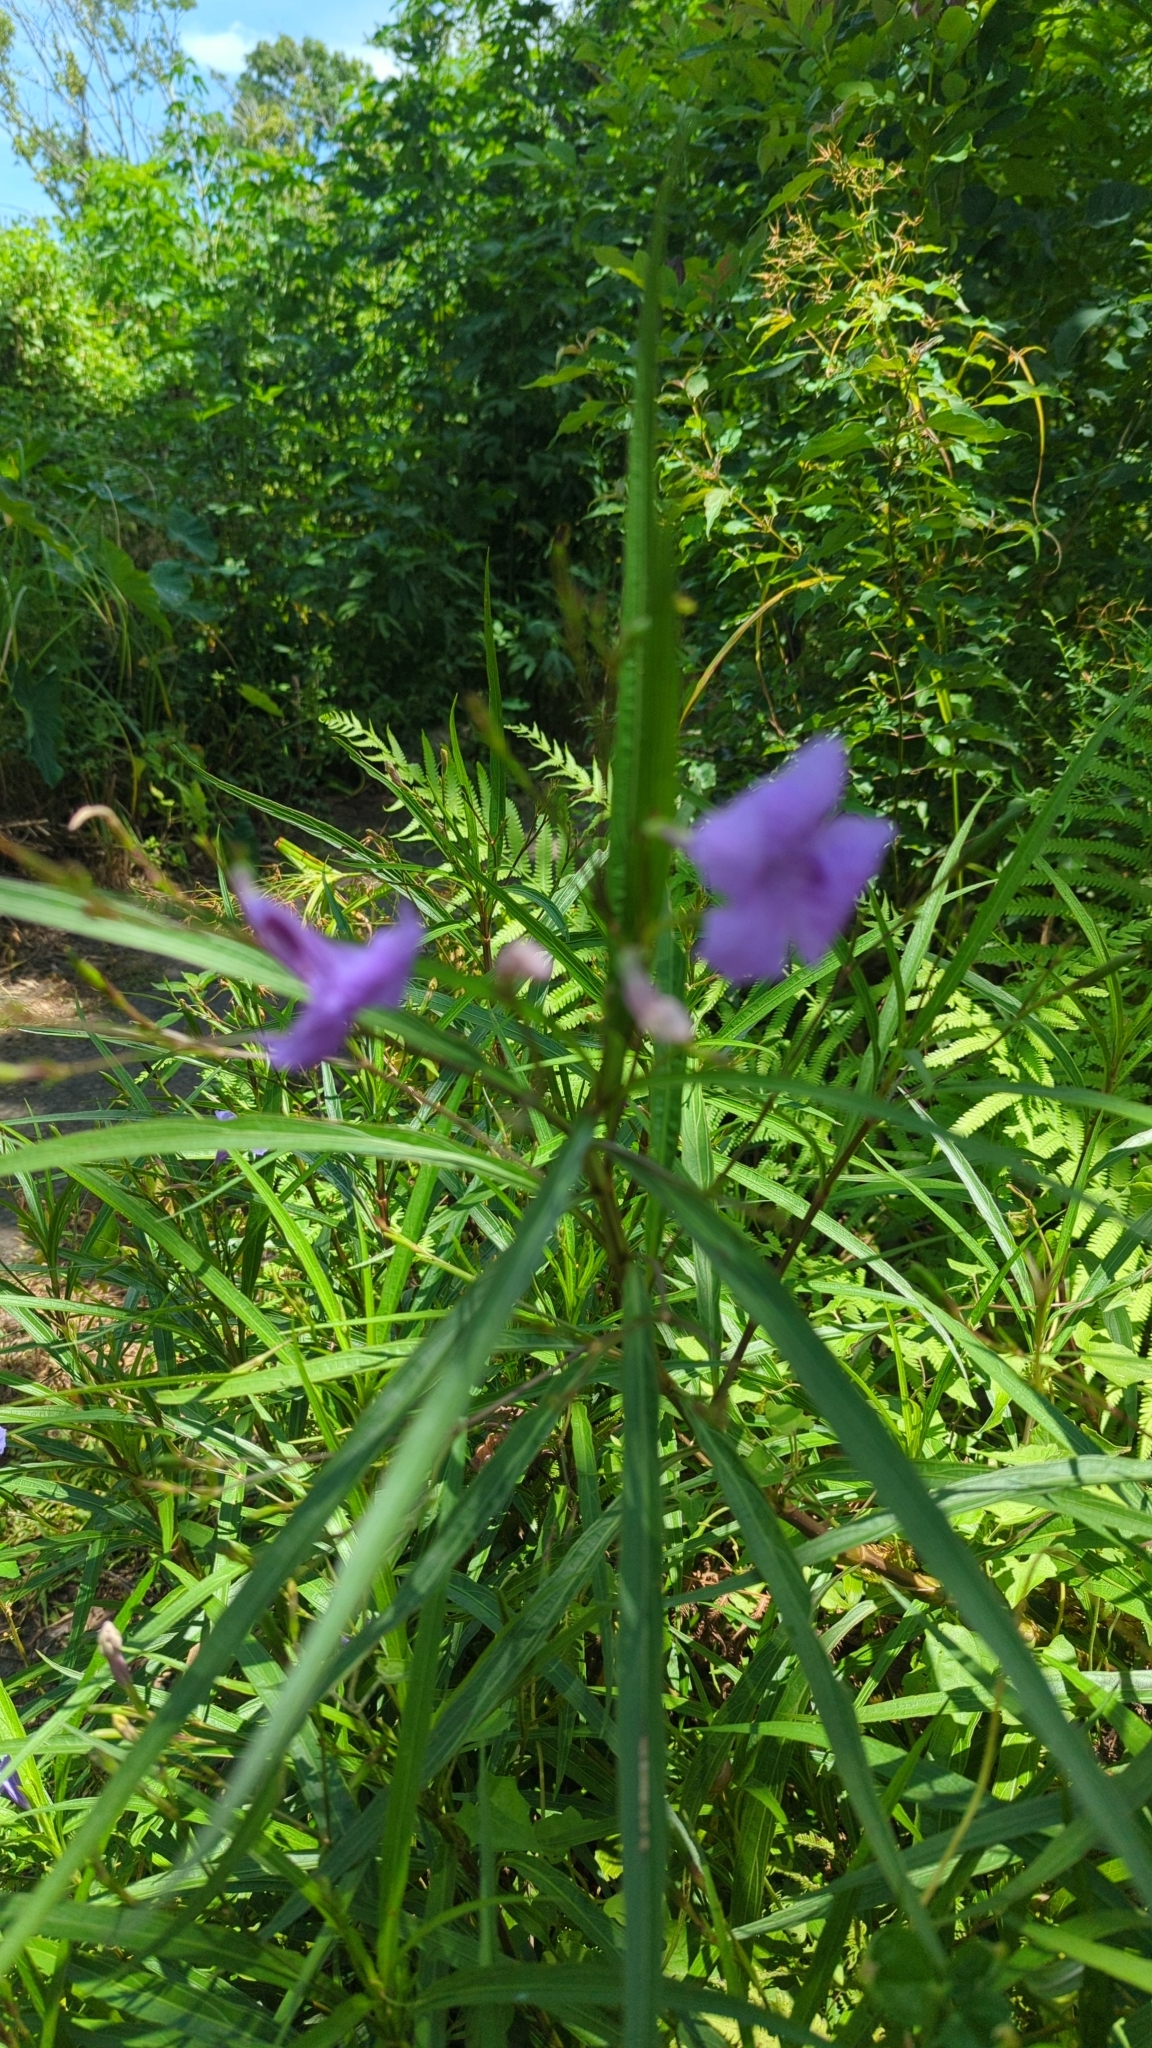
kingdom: Plantae
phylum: Tracheophyta
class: Magnoliopsida
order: Lamiales
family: Acanthaceae
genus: Ruellia
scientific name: Ruellia simplex
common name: Softseed wild petunia
